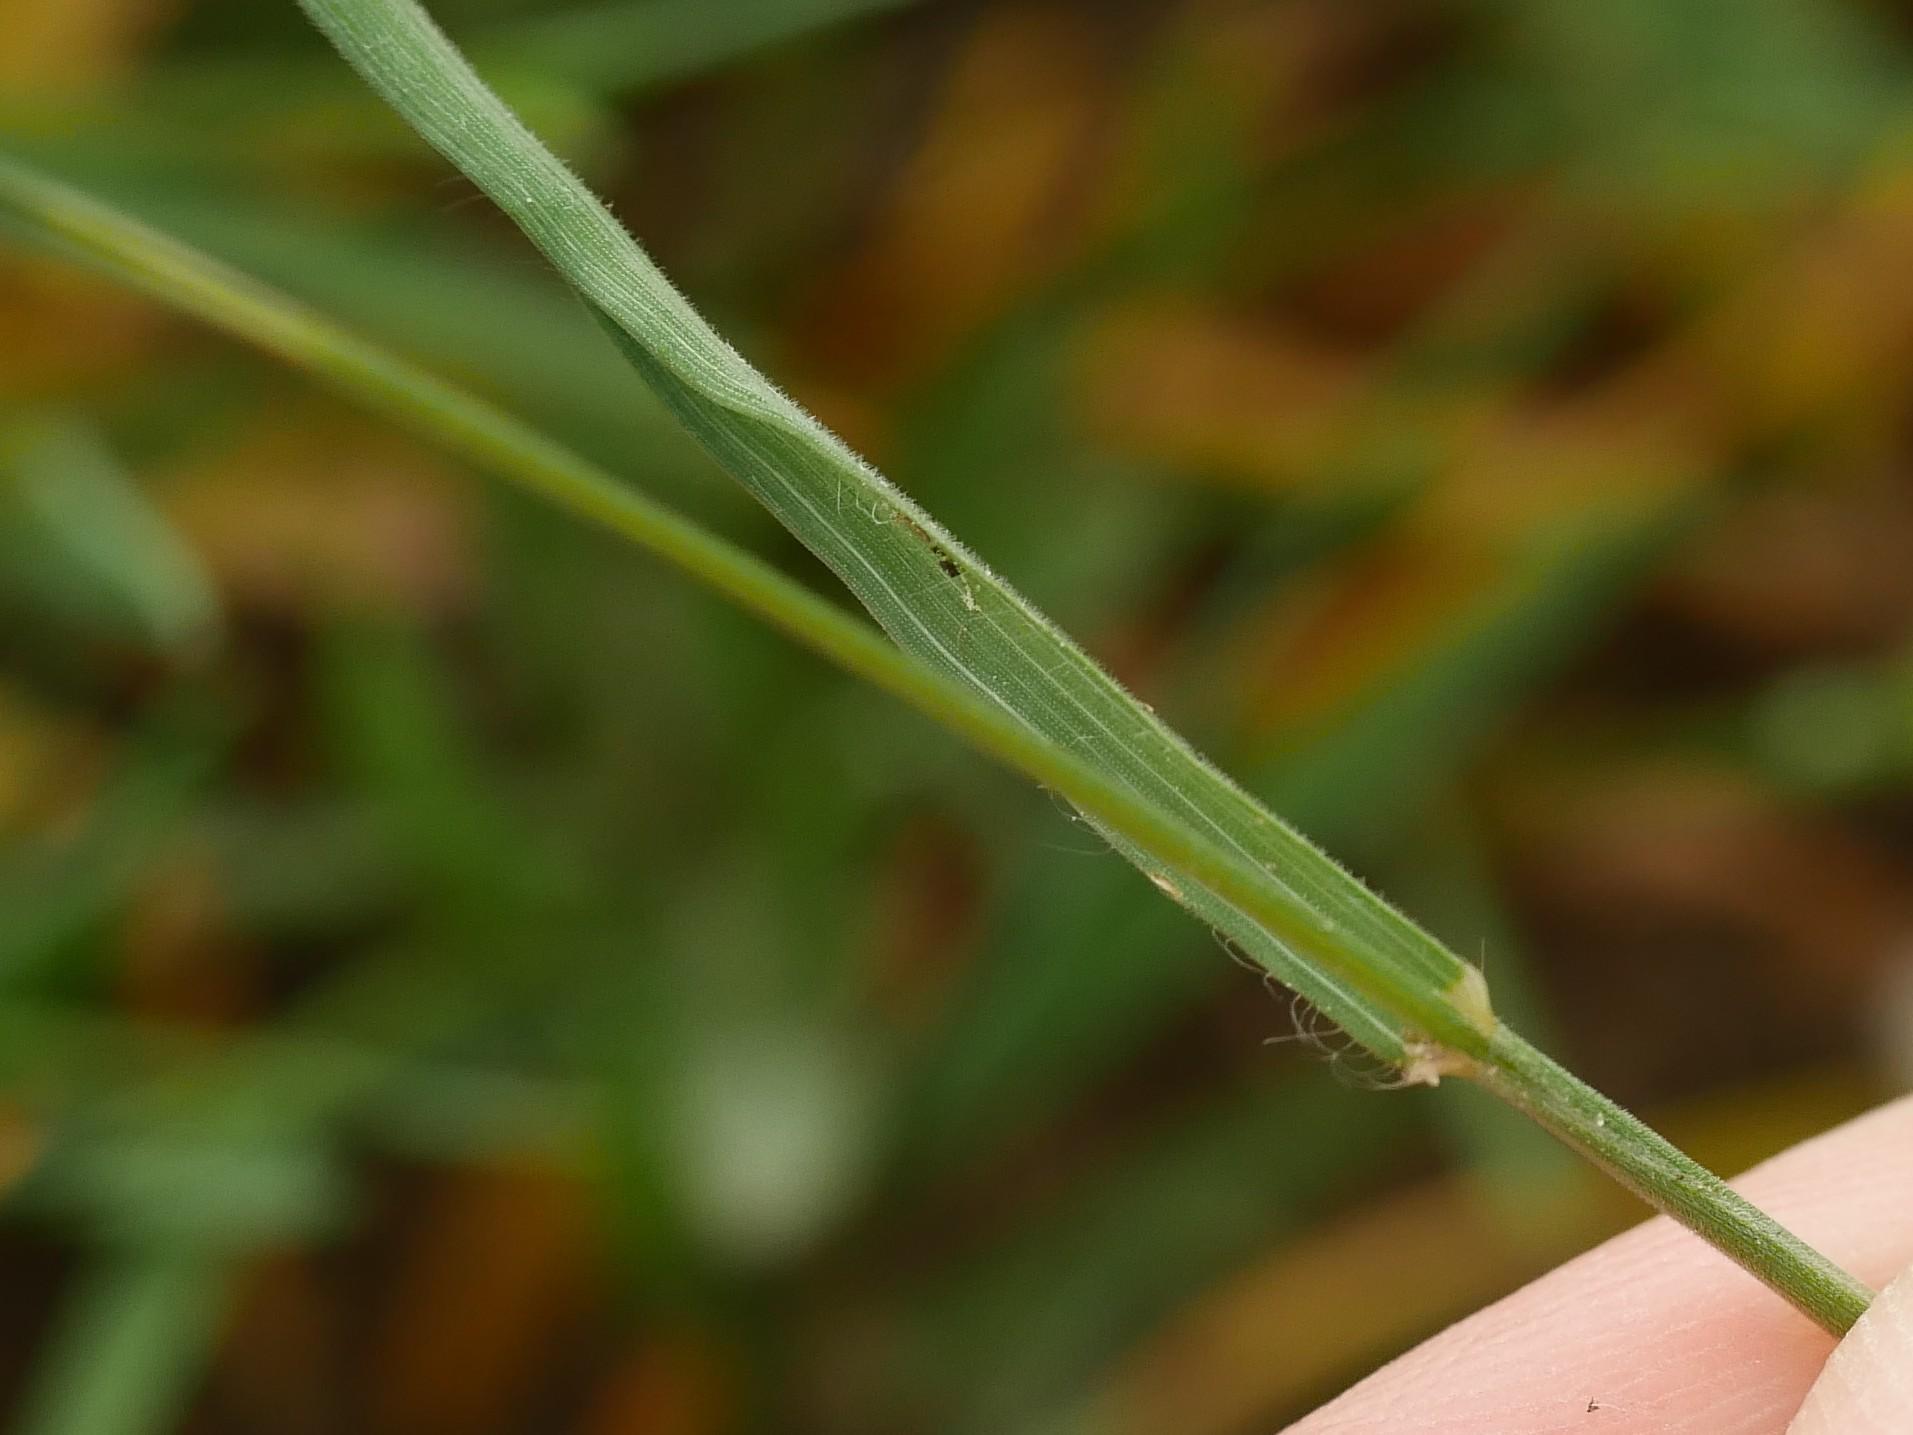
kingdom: Plantae
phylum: Tracheophyta
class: Liliopsida
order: Poales
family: Poaceae
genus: Bromus
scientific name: Bromus hordeaceus
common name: Soft brome
